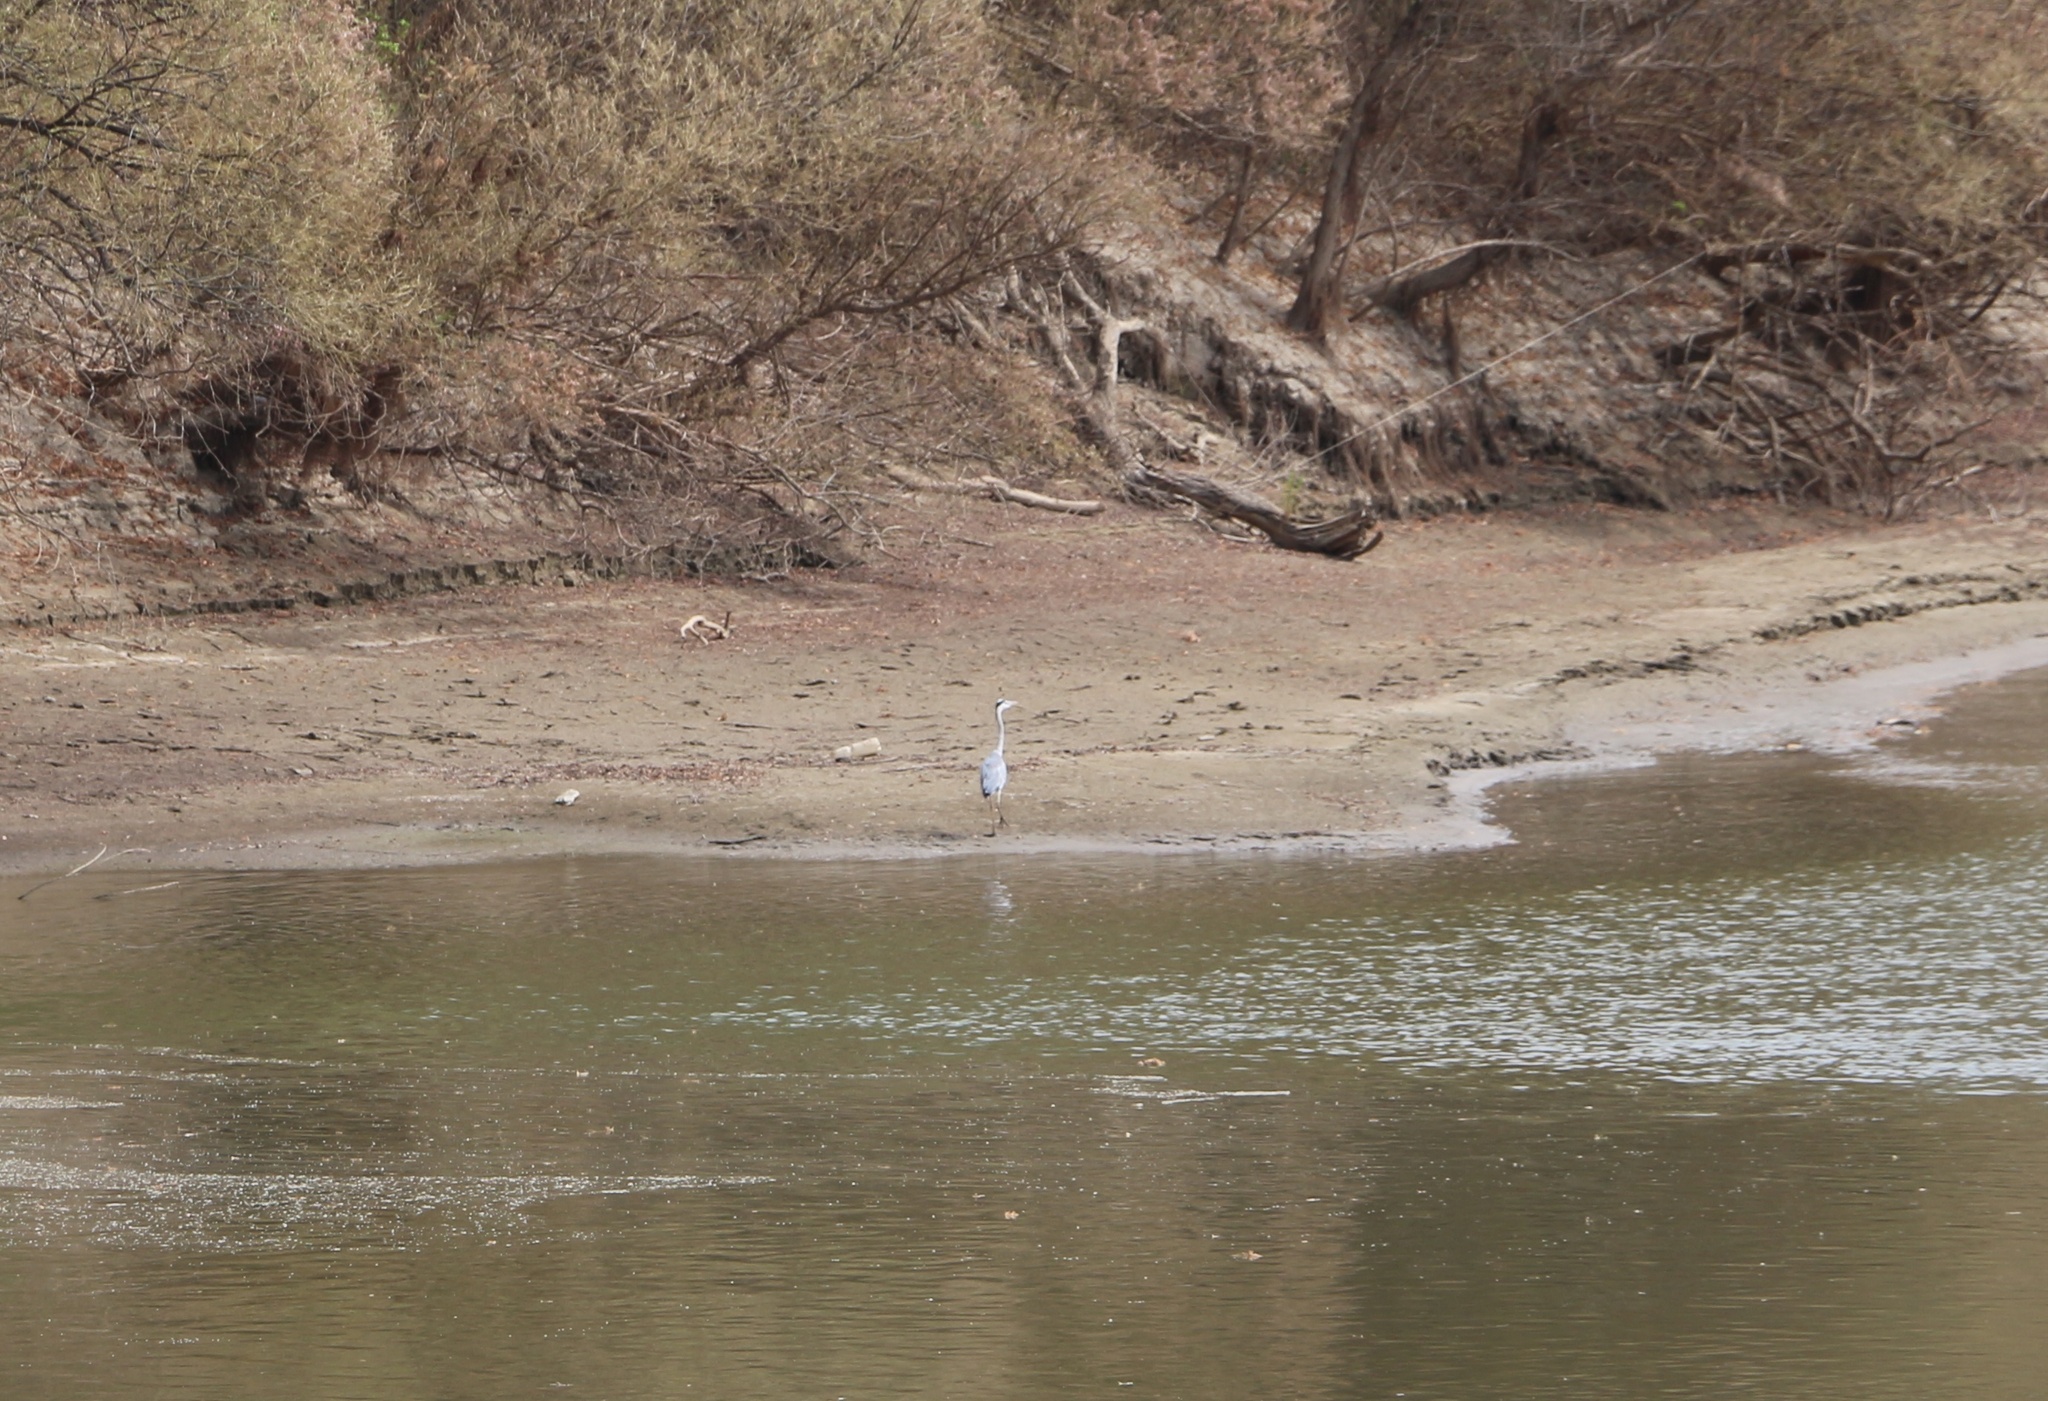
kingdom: Animalia
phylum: Chordata
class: Aves
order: Pelecaniformes
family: Ardeidae
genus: Ardea
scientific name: Ardea cinerea
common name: Grey heron
